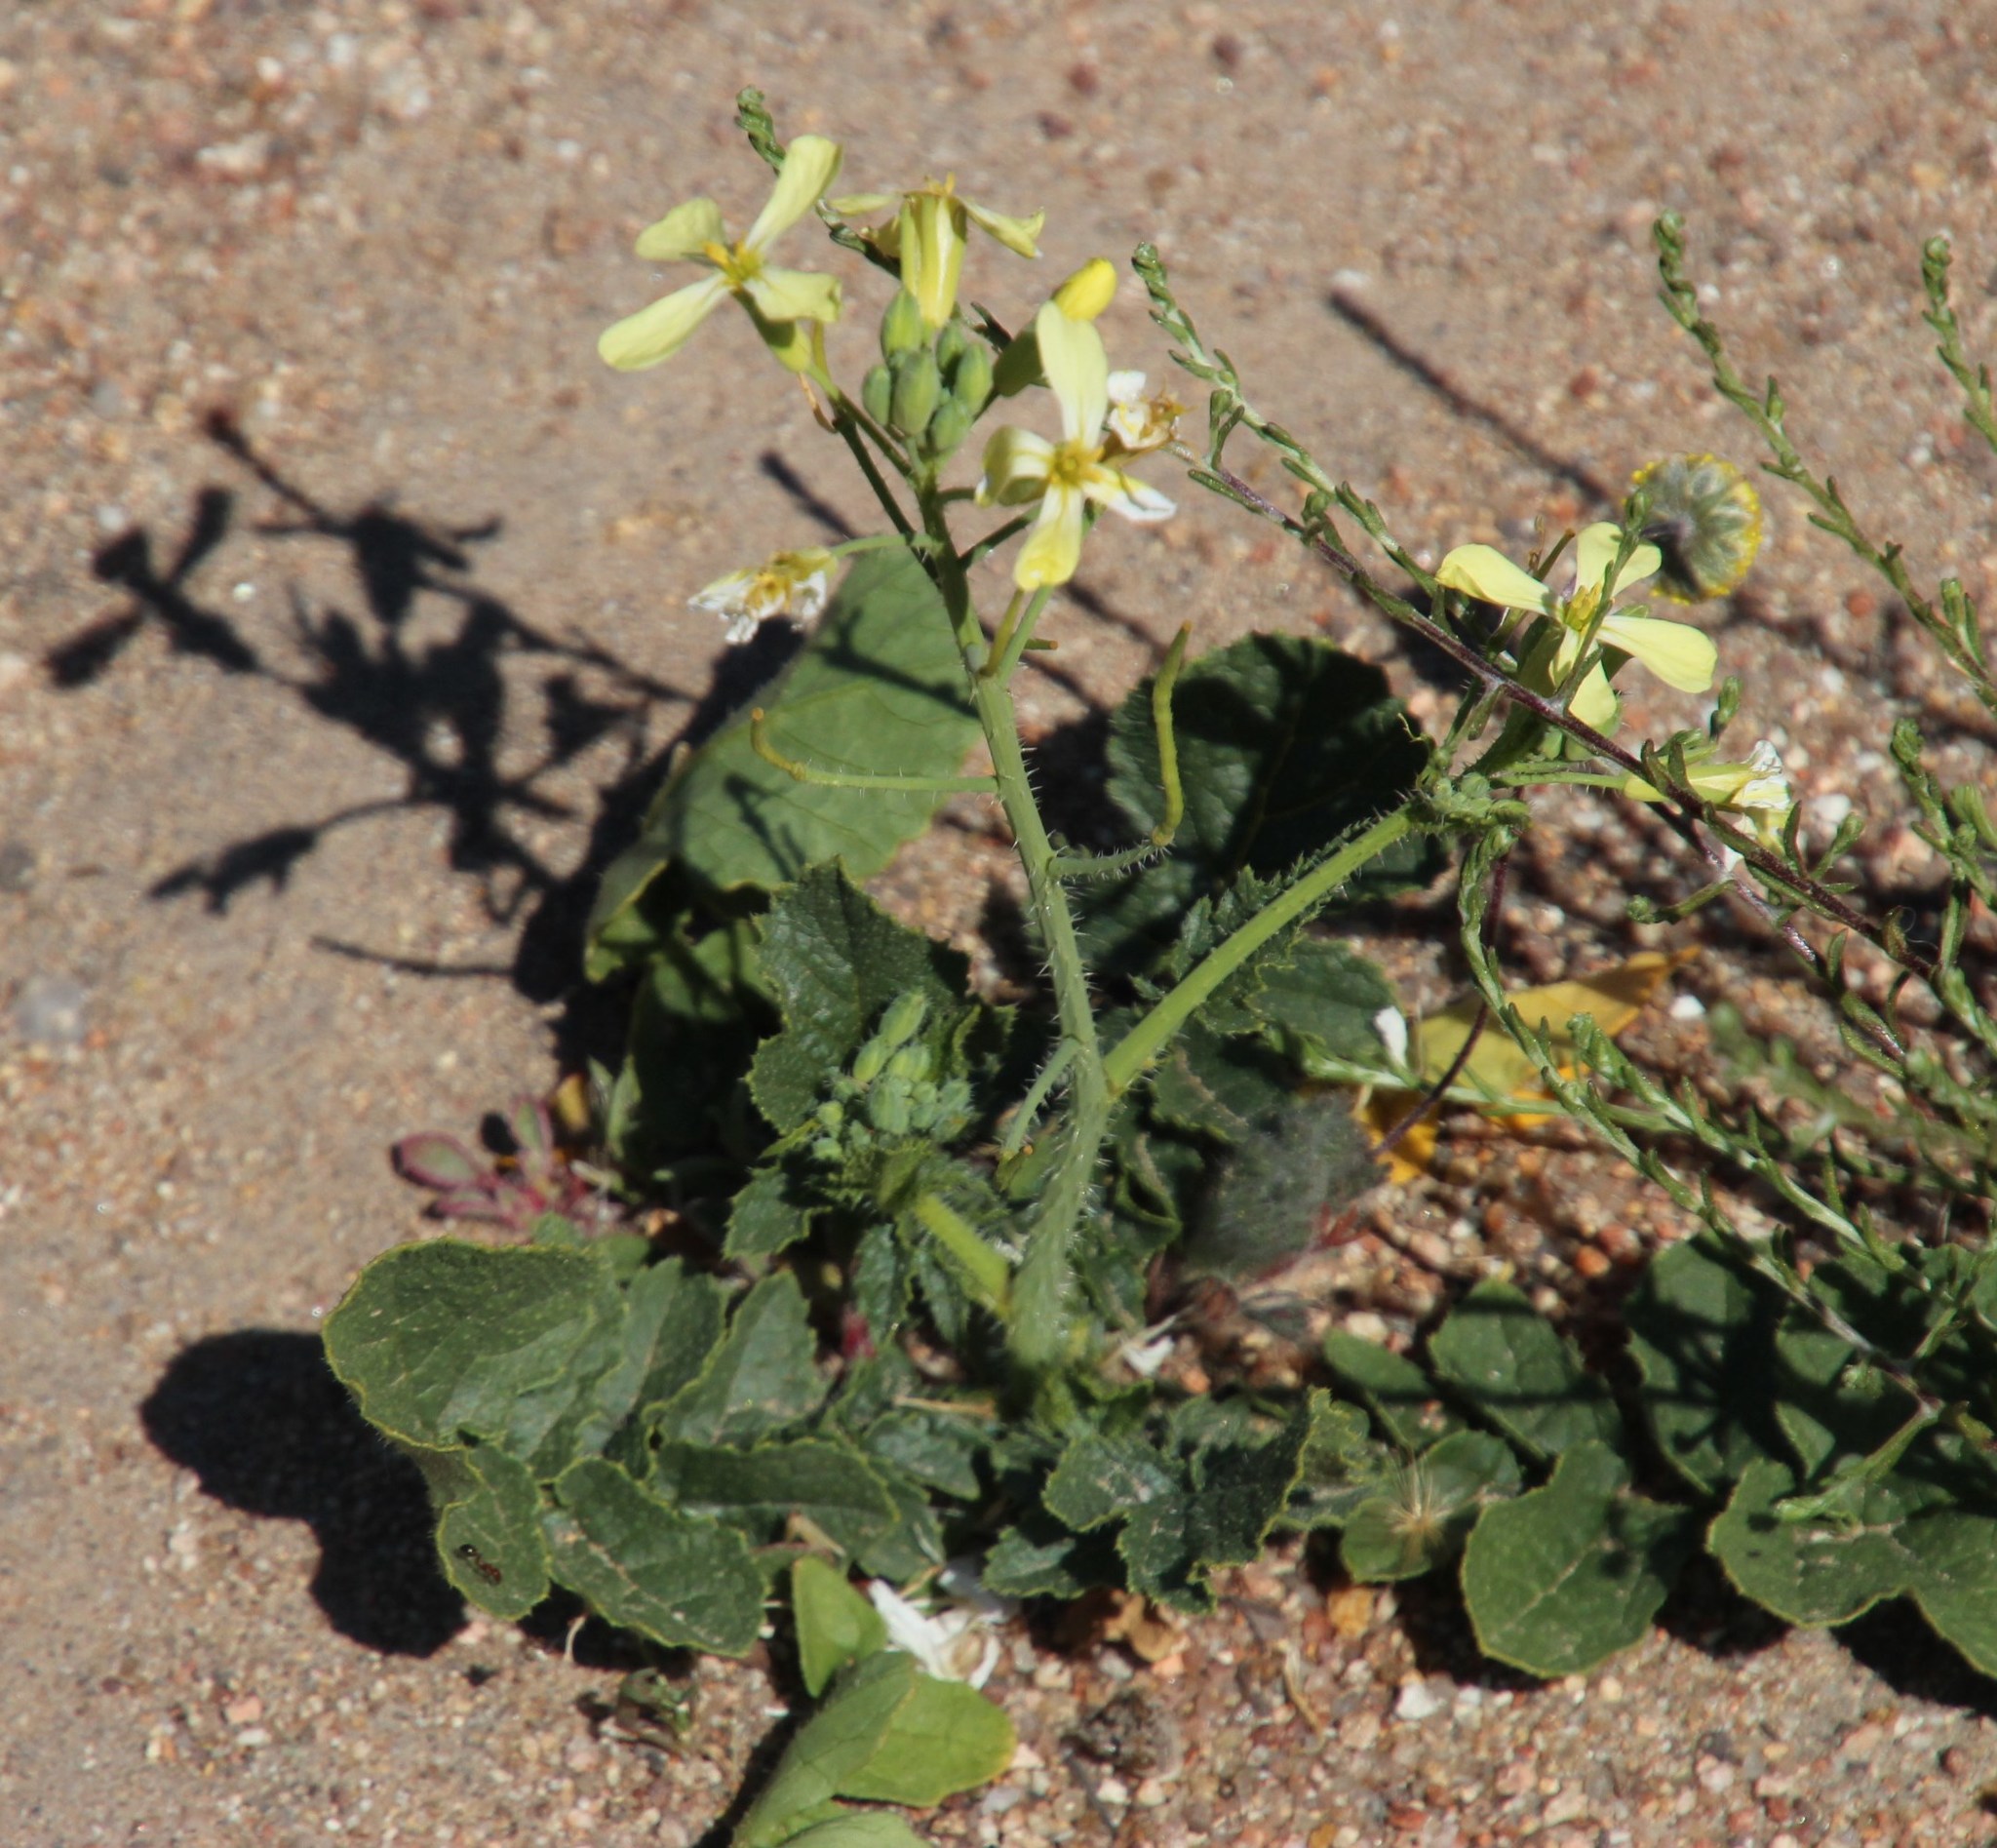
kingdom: Plantae
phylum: Tracheophyta
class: Magnoliopsida
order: Brassicales
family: Brassicaceae
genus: Raphanus
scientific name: Raphanus raphanistrum
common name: Wild radish
